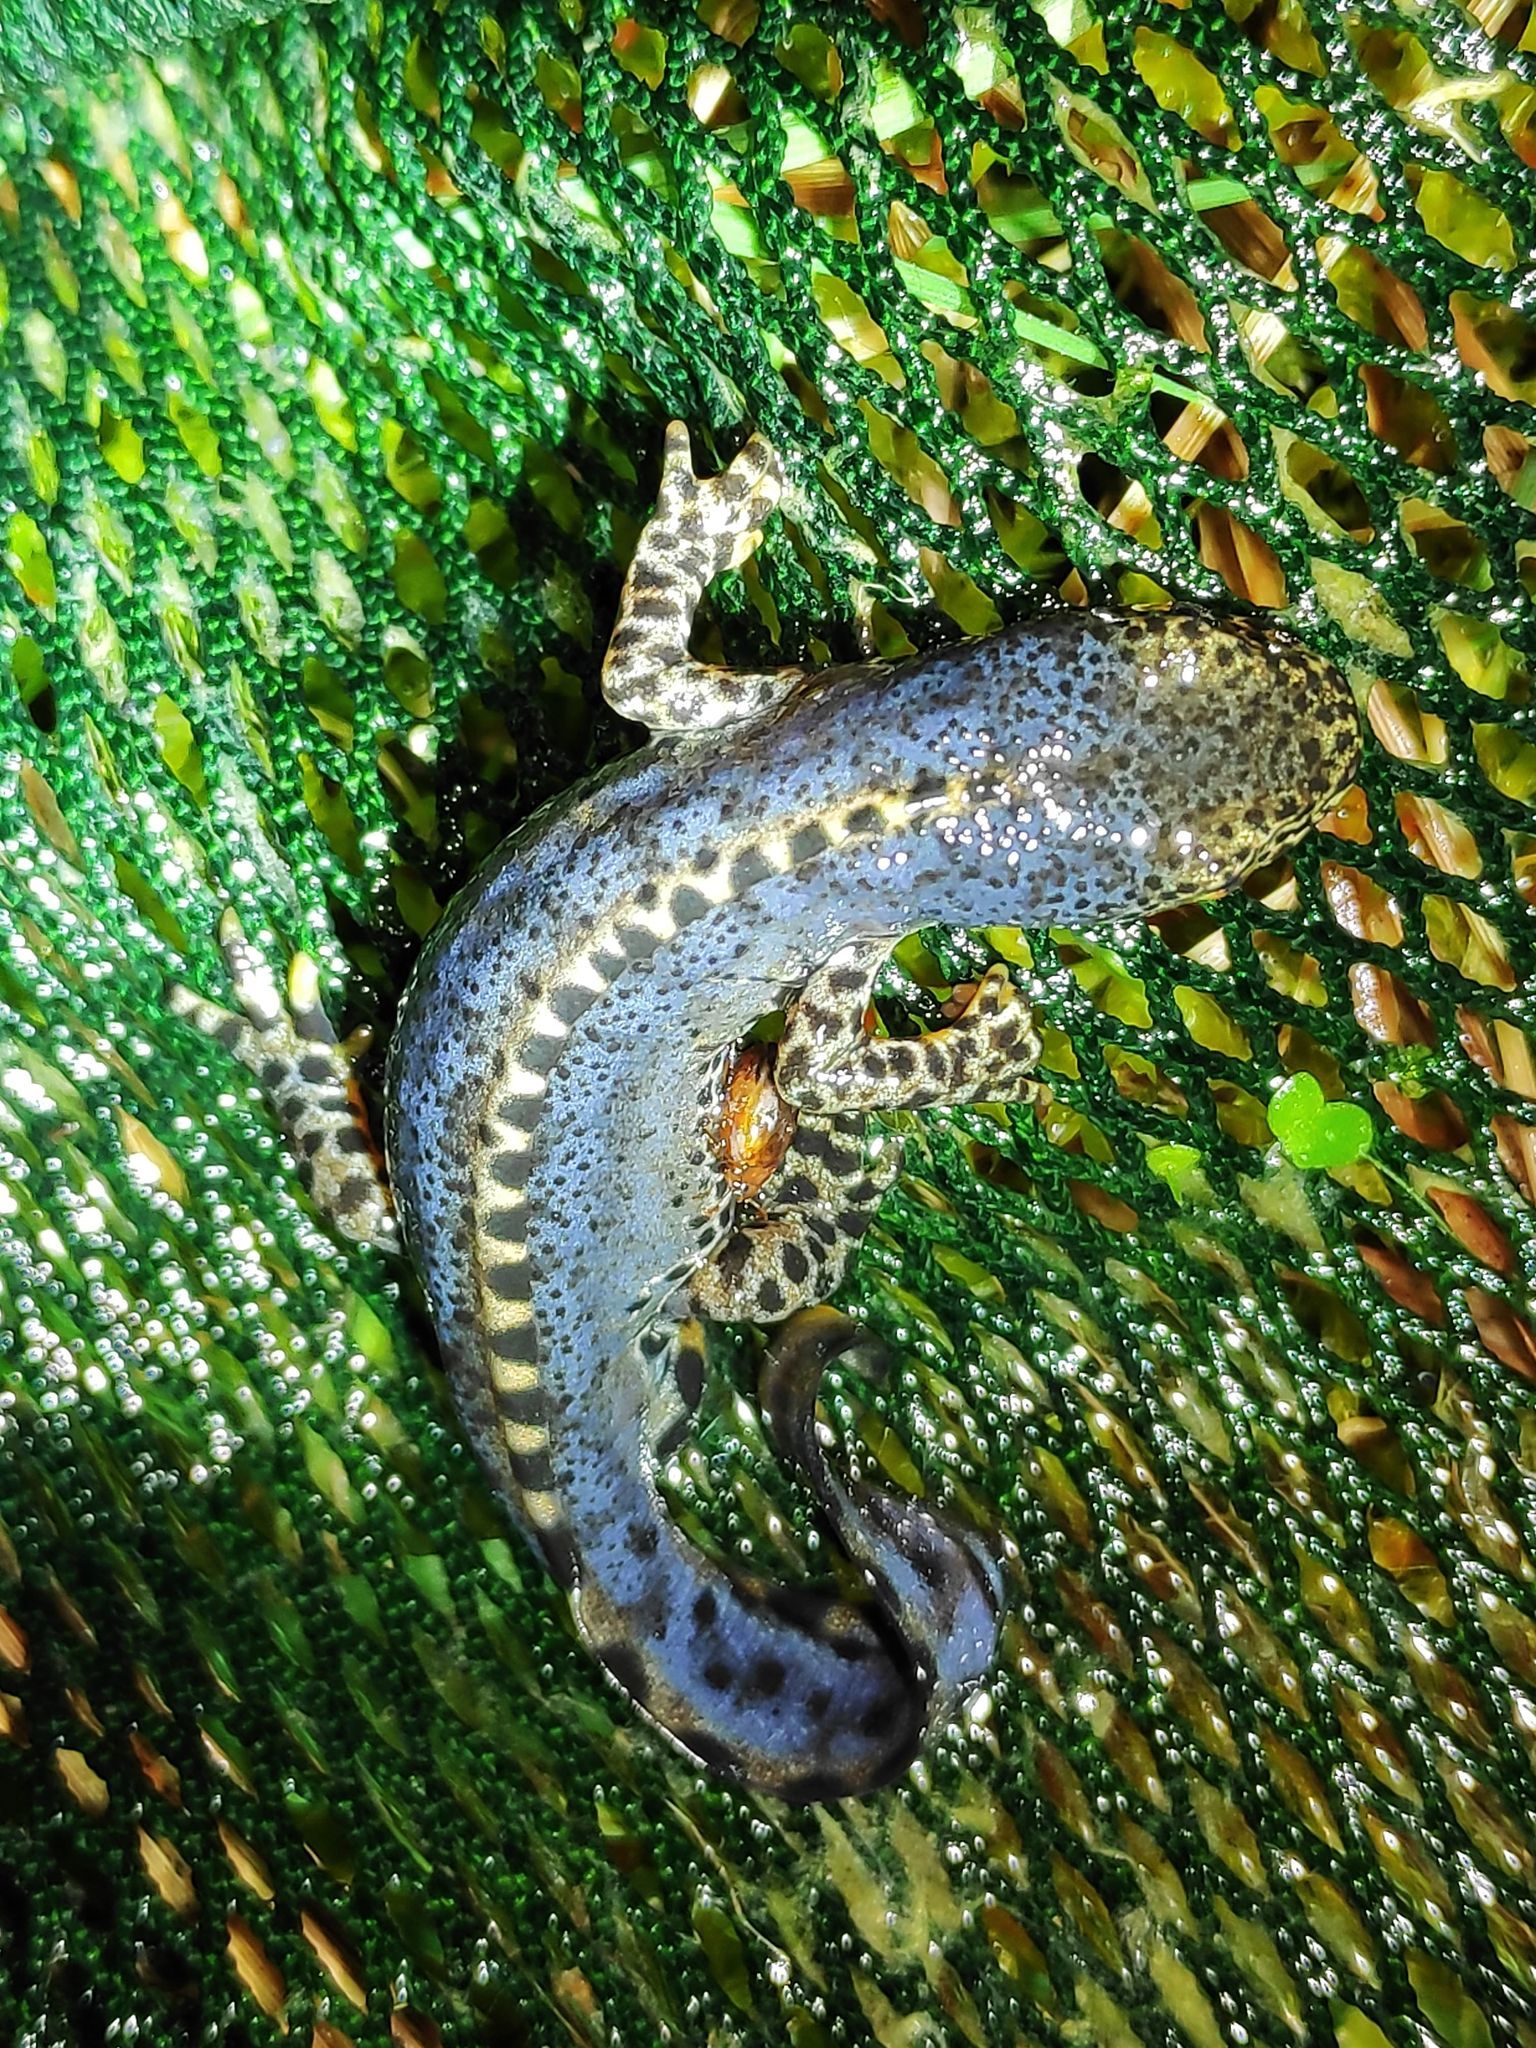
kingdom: Animalia
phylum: Chordata
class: Amphibia
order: Caudata
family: Salamandridae
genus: Ichthyosaura
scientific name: Ichthyosaura alpestris
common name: Alpine newt
